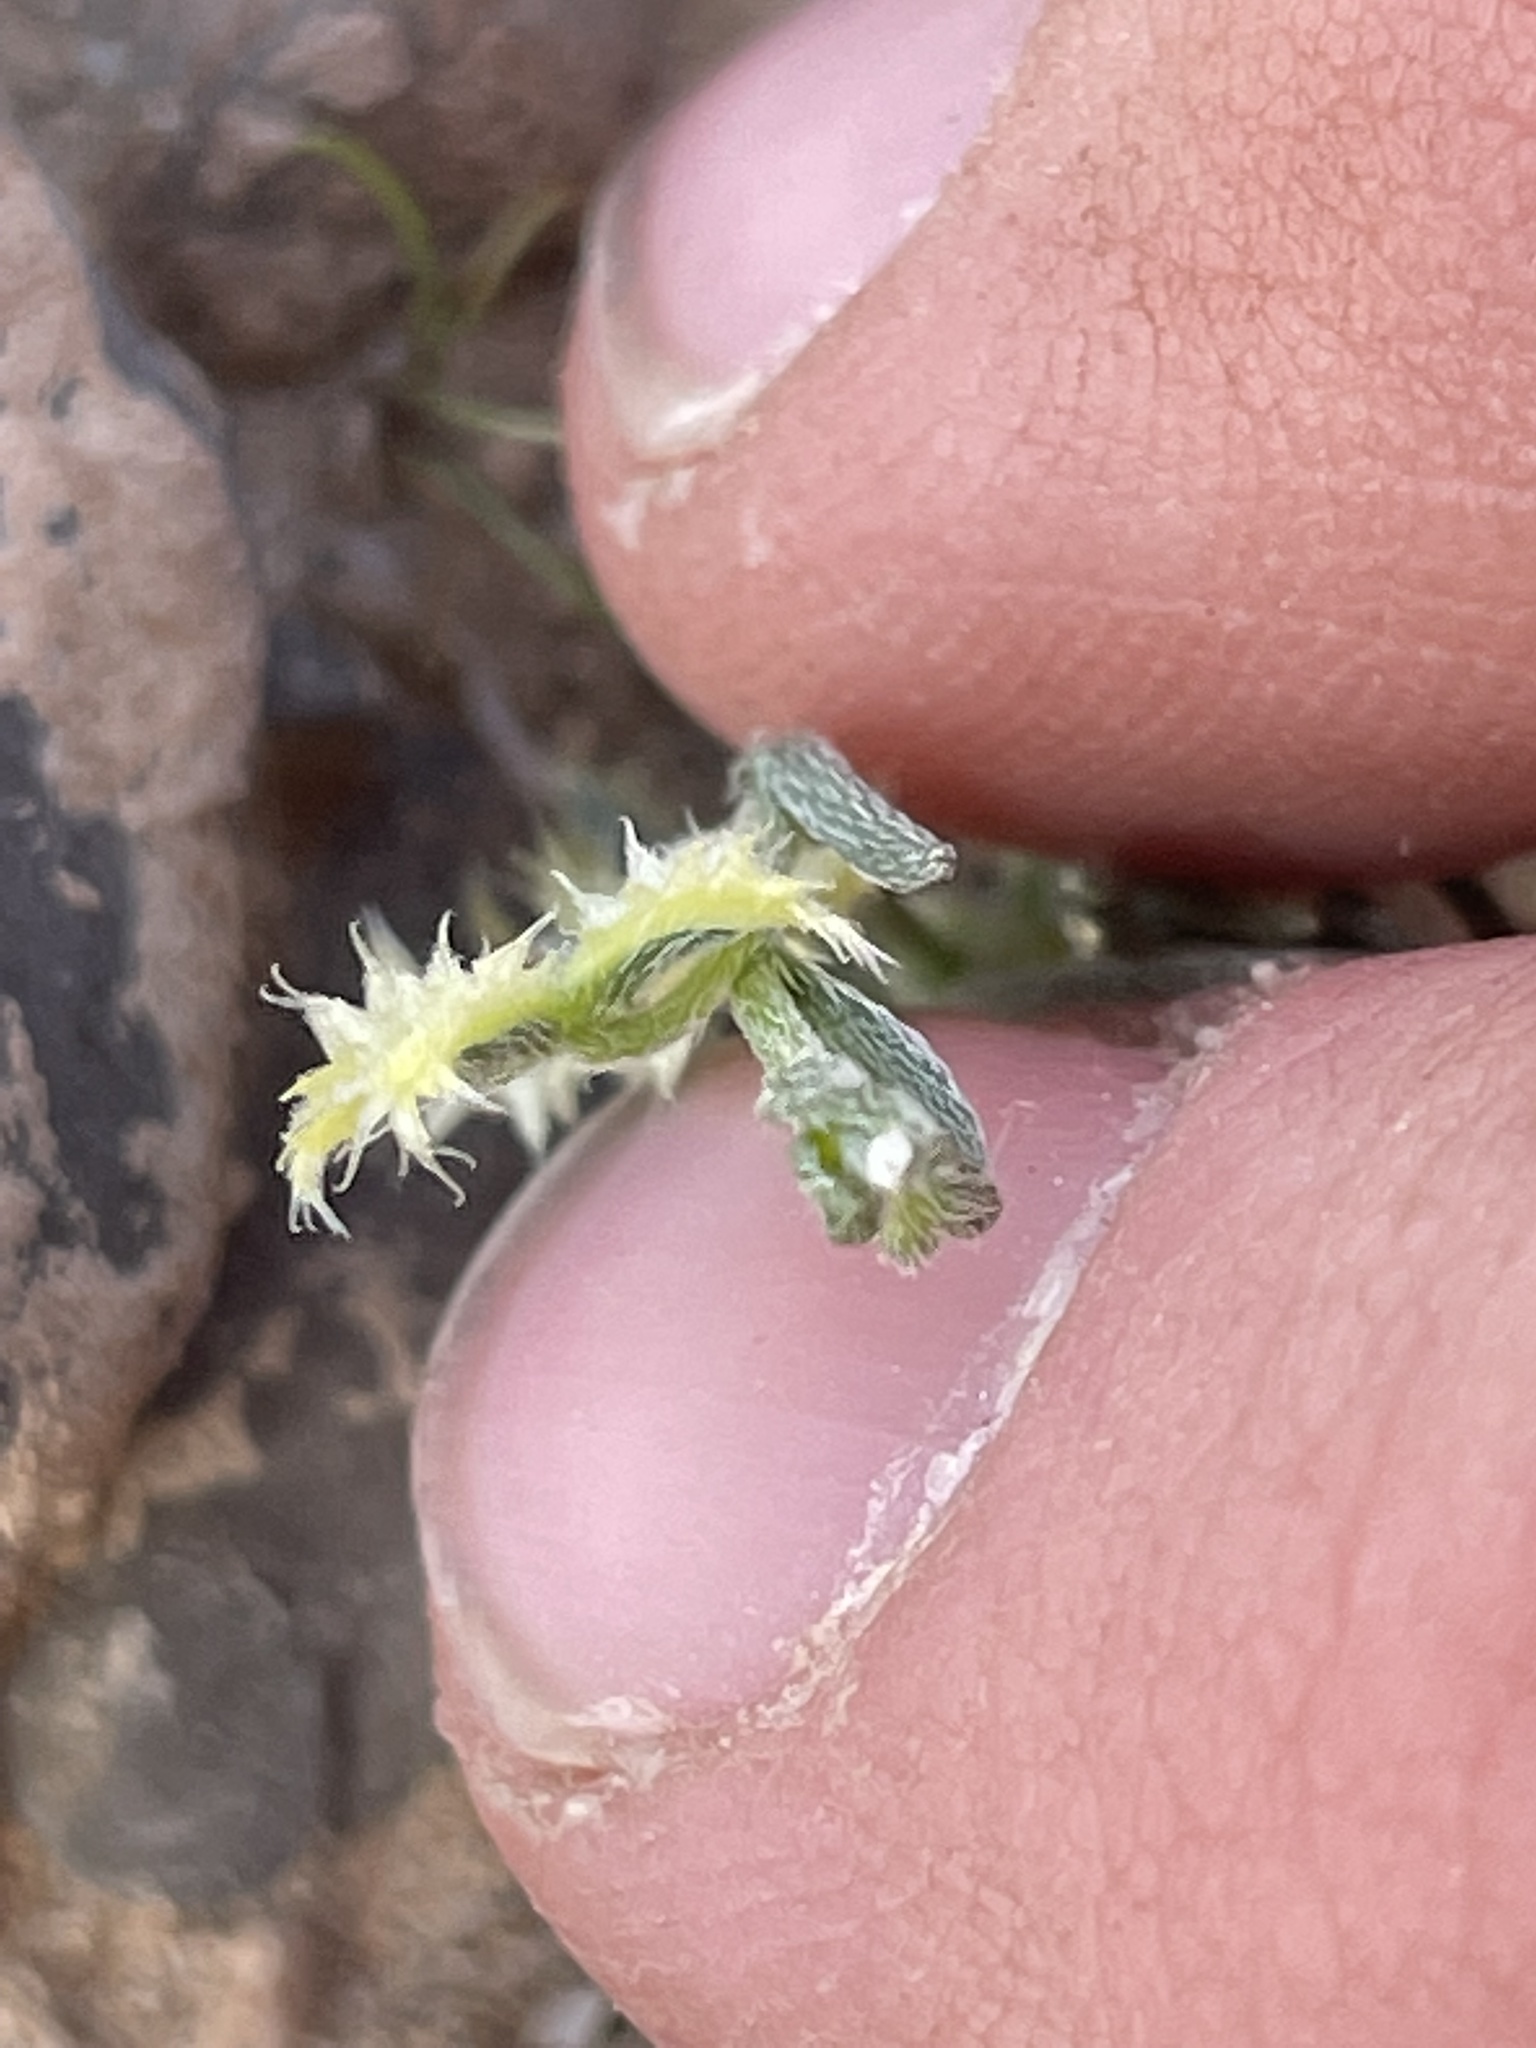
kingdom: Plantae
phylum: Tracheophyta
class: Magnoliopsida
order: Boraginales
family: Boraginaceae
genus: Pectocarya
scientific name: Pectocarya platycarpa
